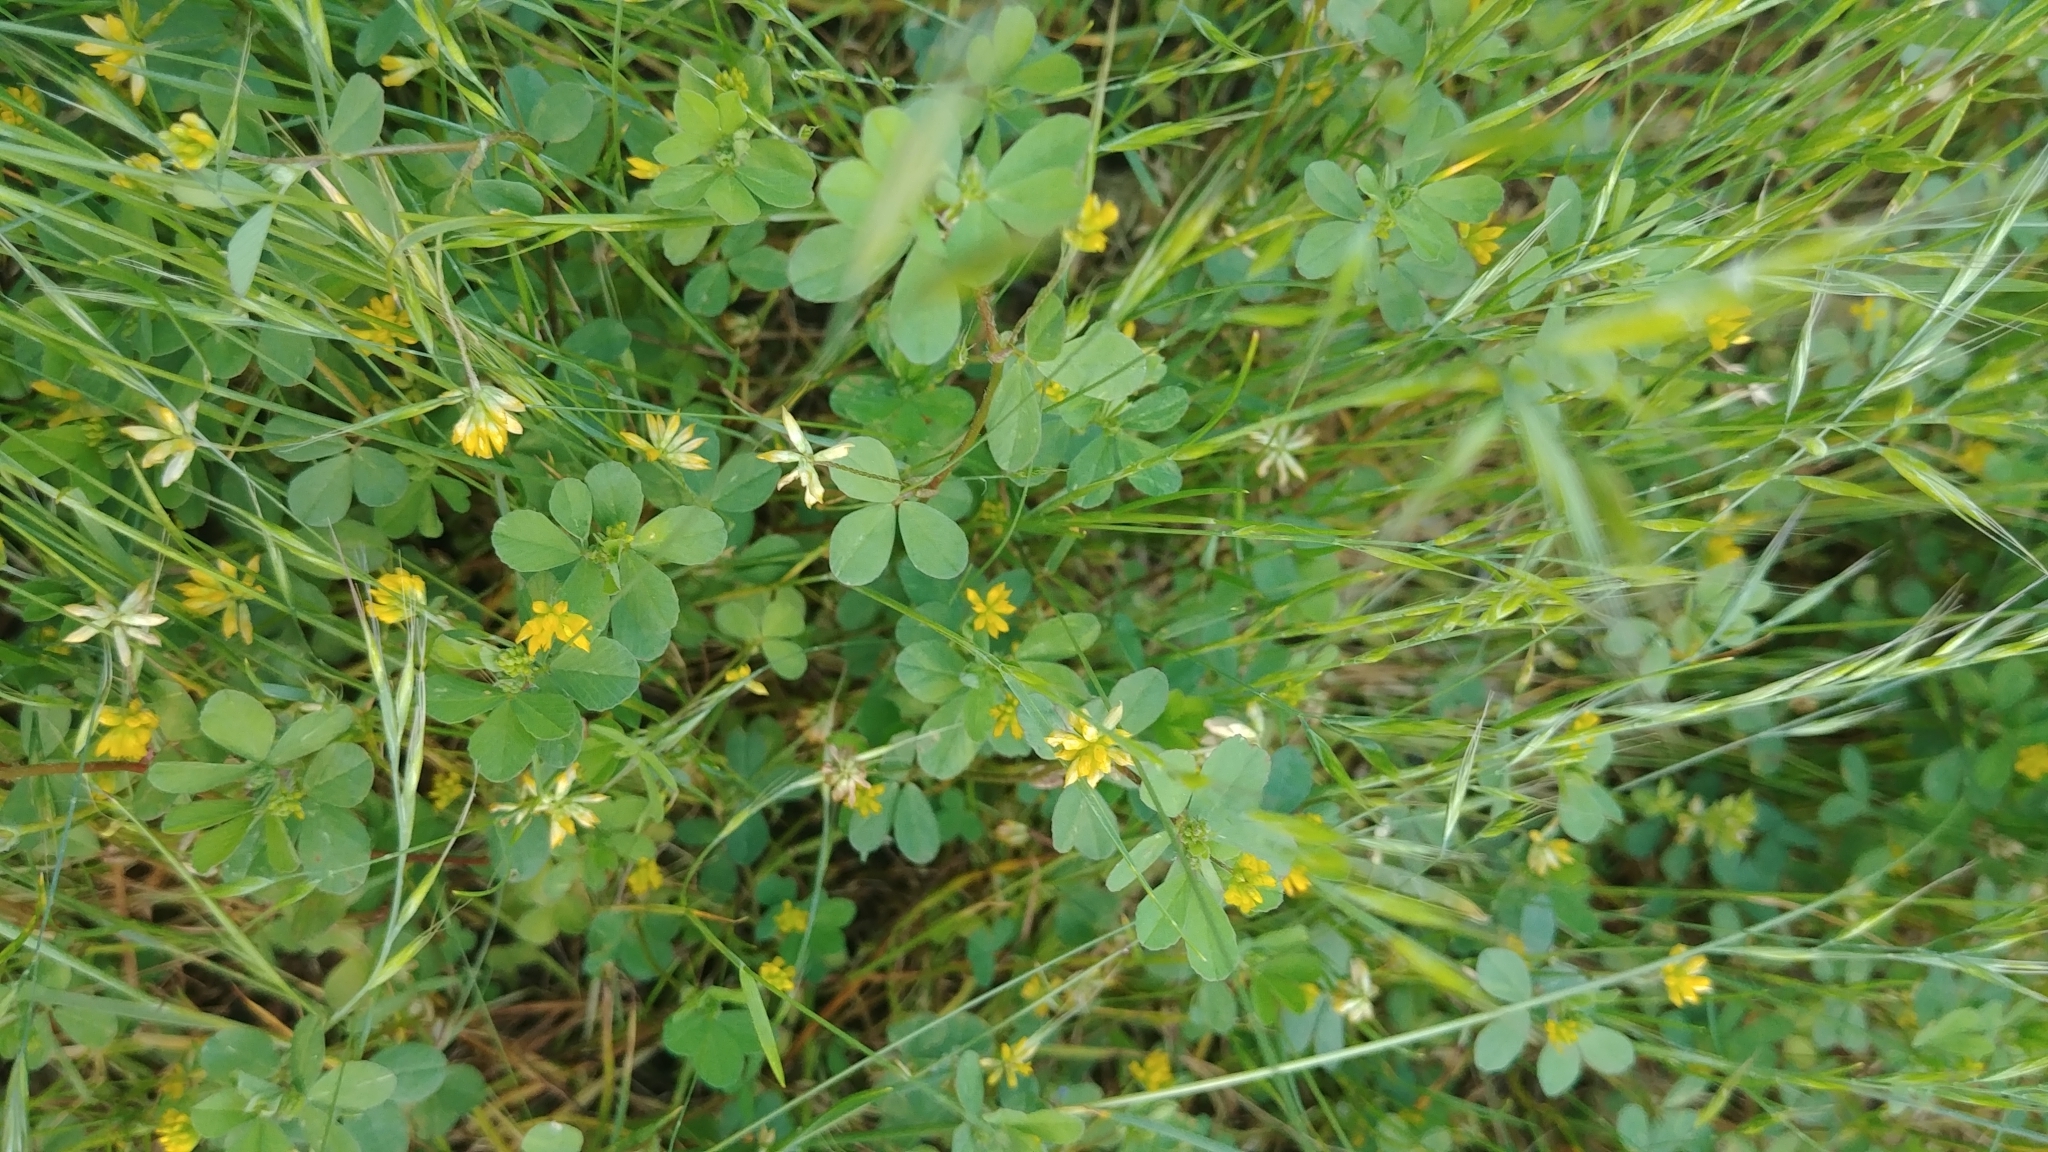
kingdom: Plantae
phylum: Tracheophyta
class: Magnoliopsida
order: Fabales
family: Fabaceae
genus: Trifolium
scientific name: Trifolium dubium
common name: Suckling clover
